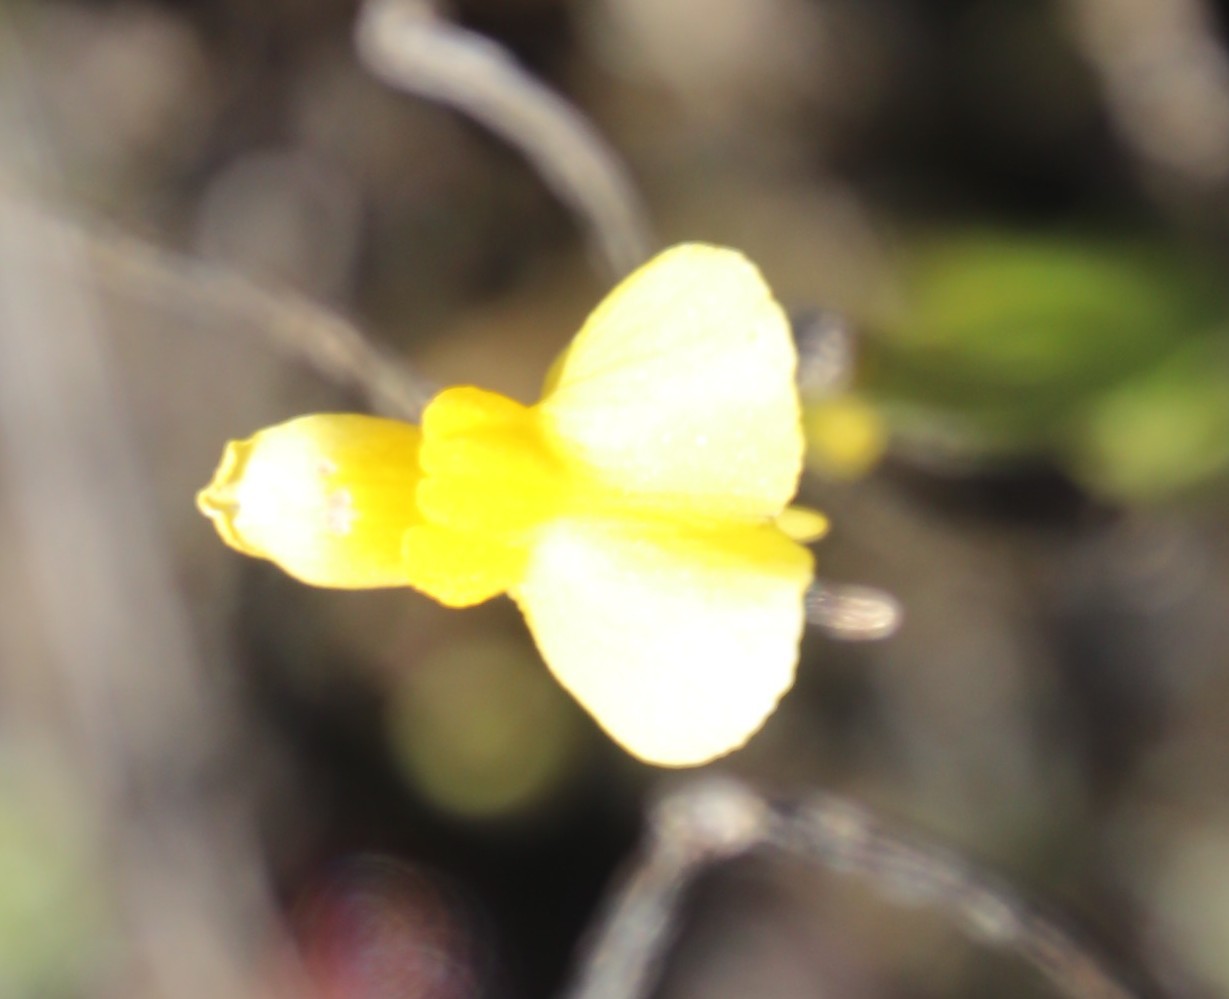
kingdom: Plantae
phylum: Tracheophyta
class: Magnoliopsida
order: Lamiales
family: Lentibulariaceae
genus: Utricularia
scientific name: Utricularia prehensilis
